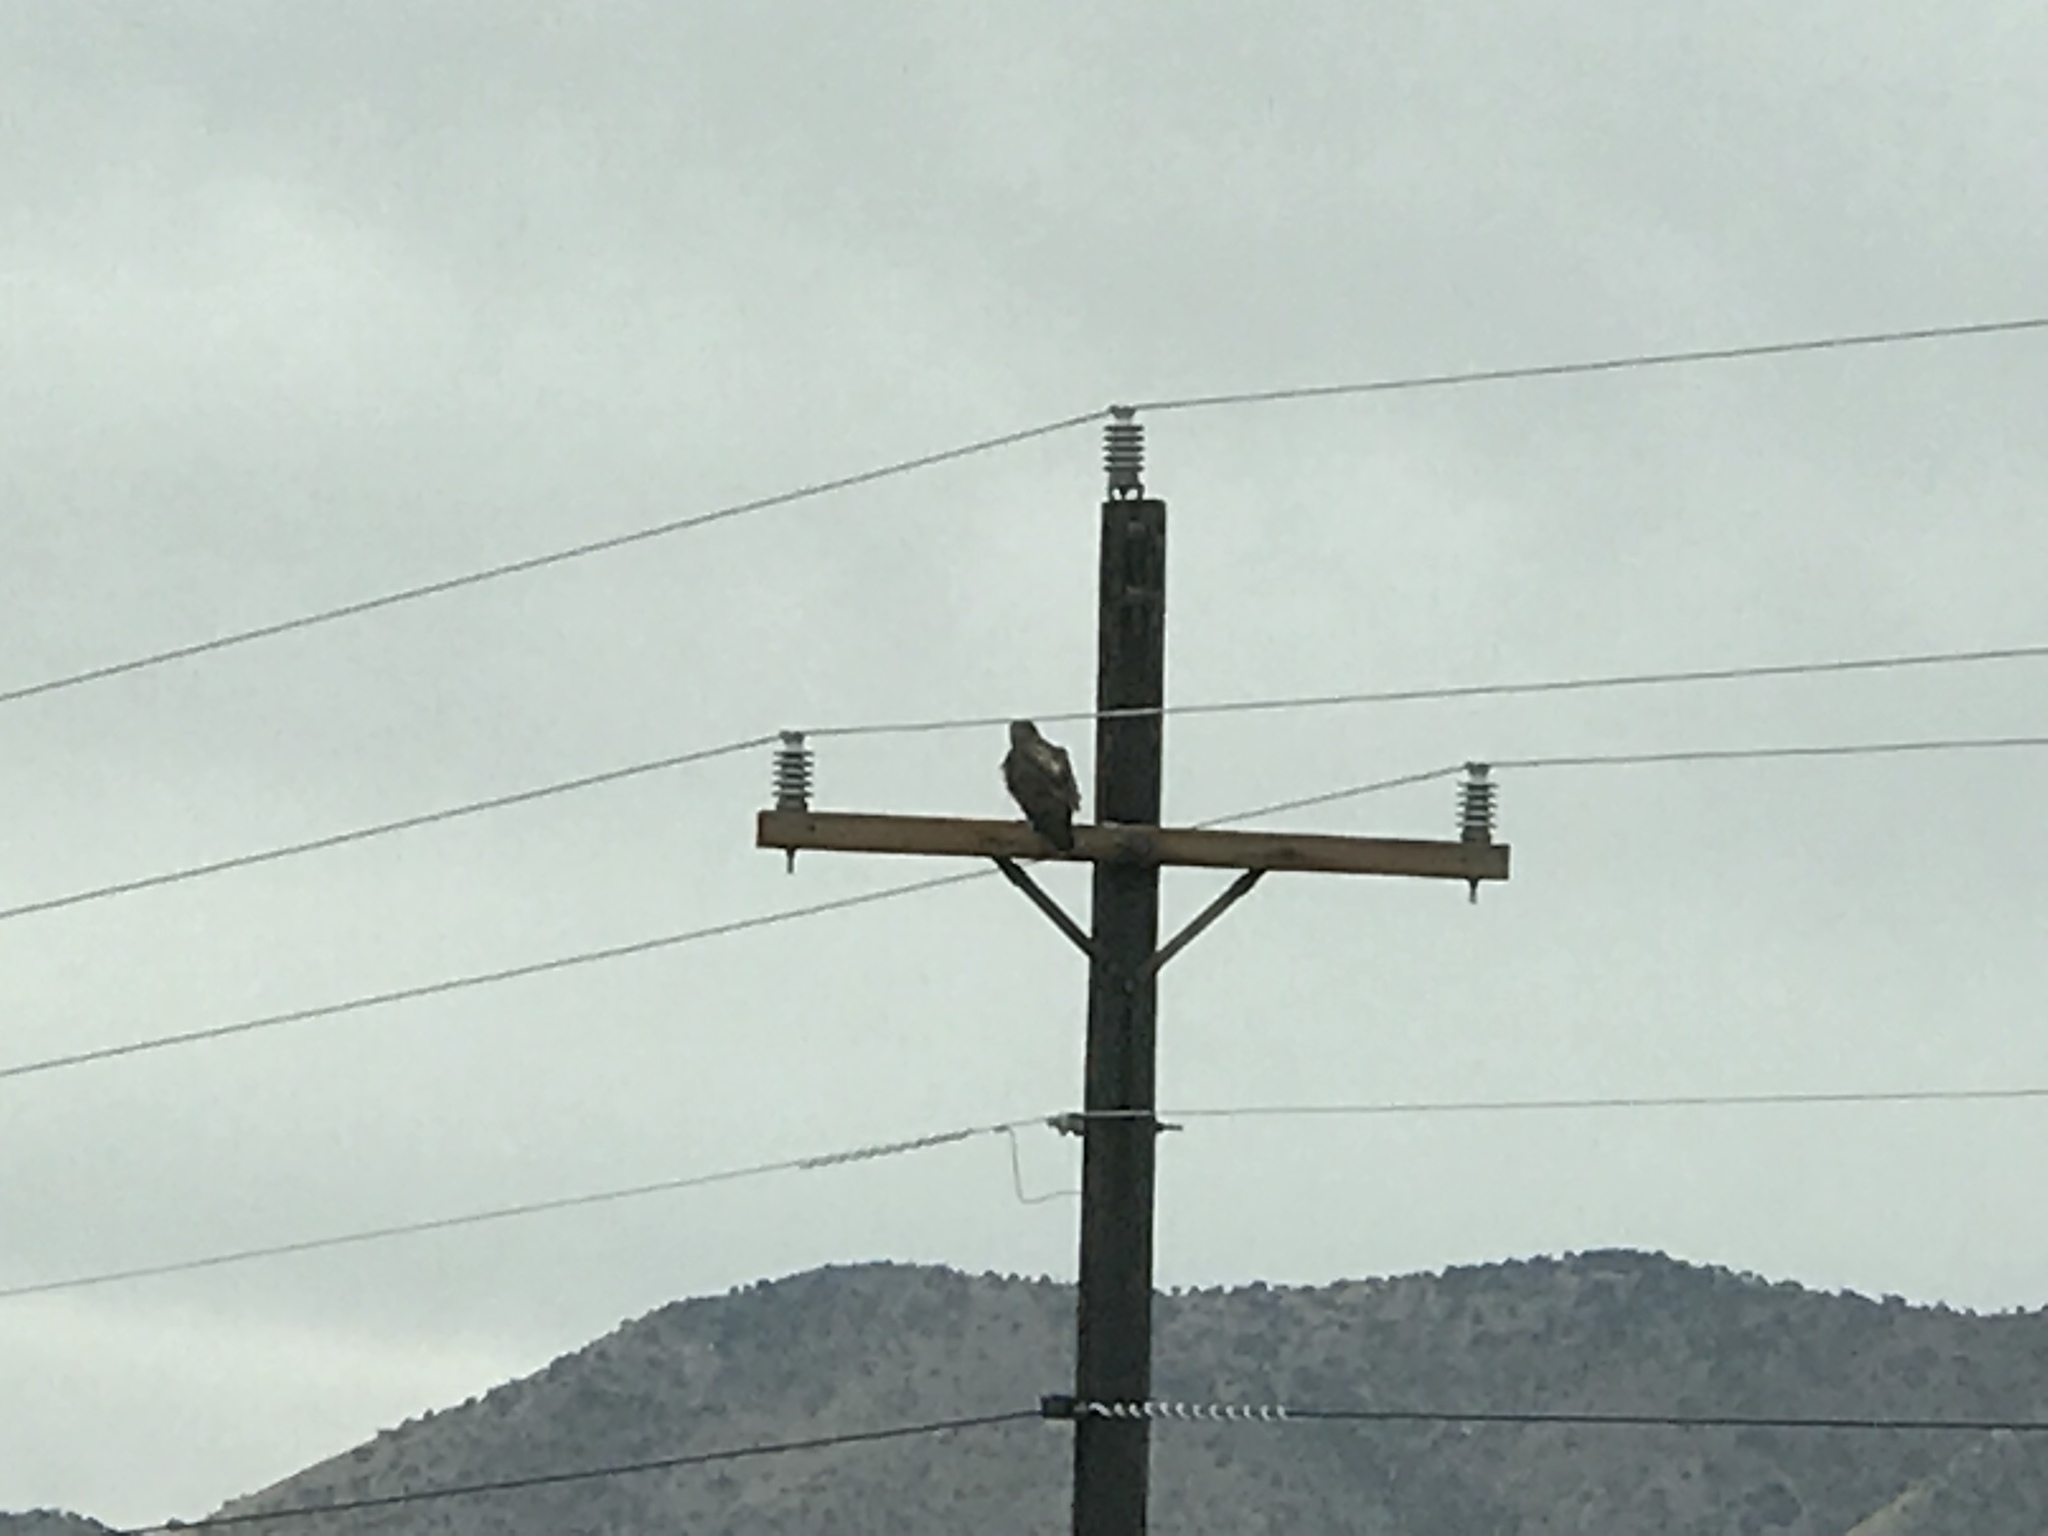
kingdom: Animalia
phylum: Chordata
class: Aves
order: Accipitriformes
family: Accipitridae
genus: Buteo
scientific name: Buteo jamaicensis
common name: Red-tailed hawk
